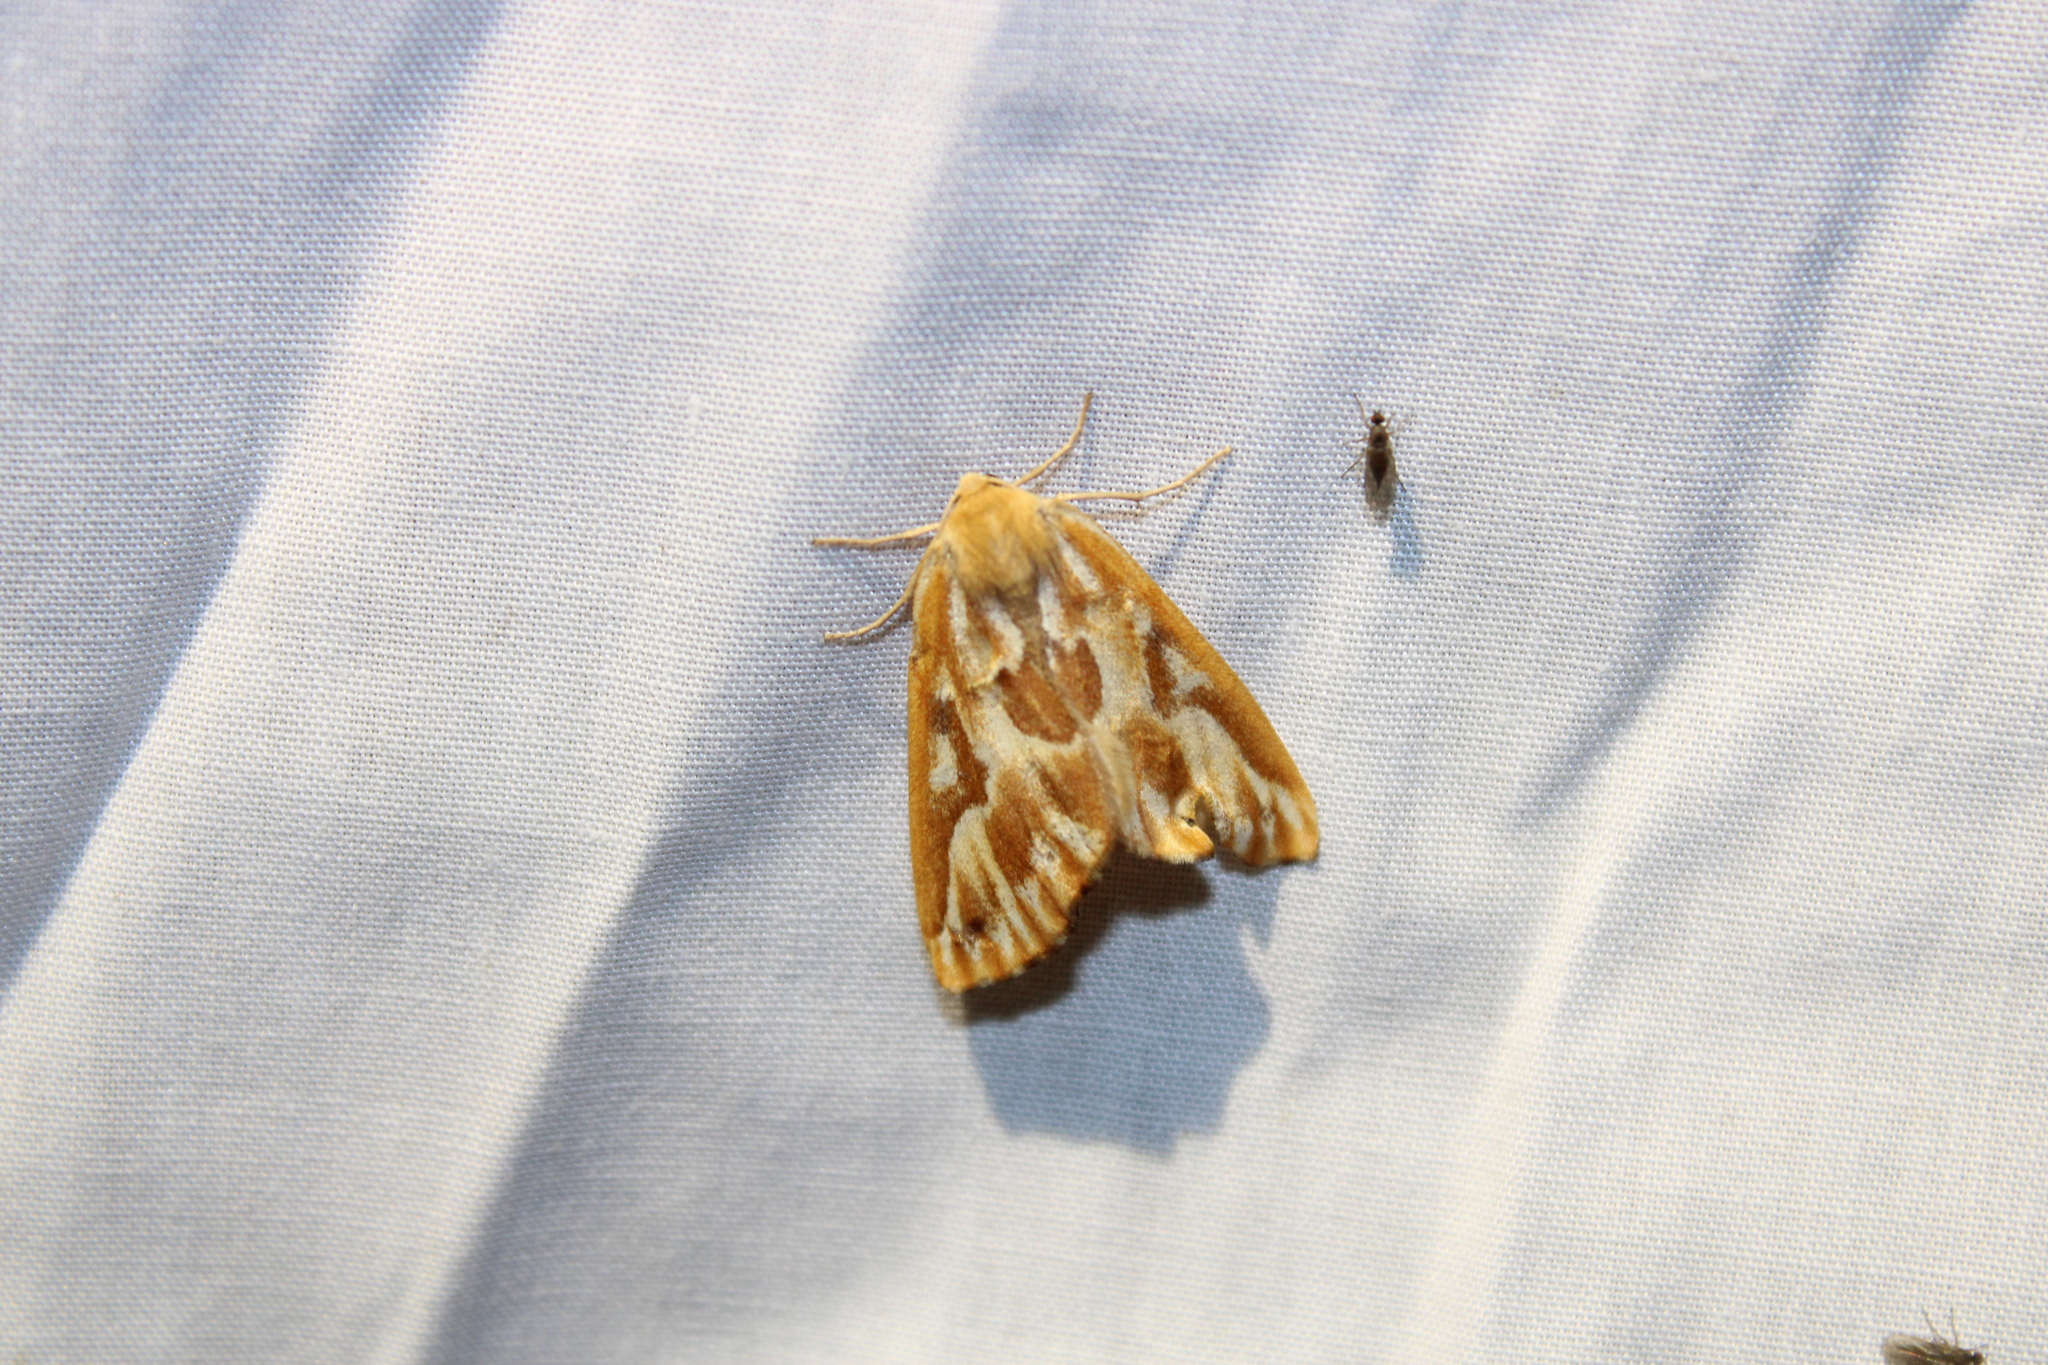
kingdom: Animalia
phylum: Arthropoda
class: Insecta
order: Lepidoptera
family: Geometridae
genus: Caripeta
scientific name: Caripeta piniata
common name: Northern pine looper moth
